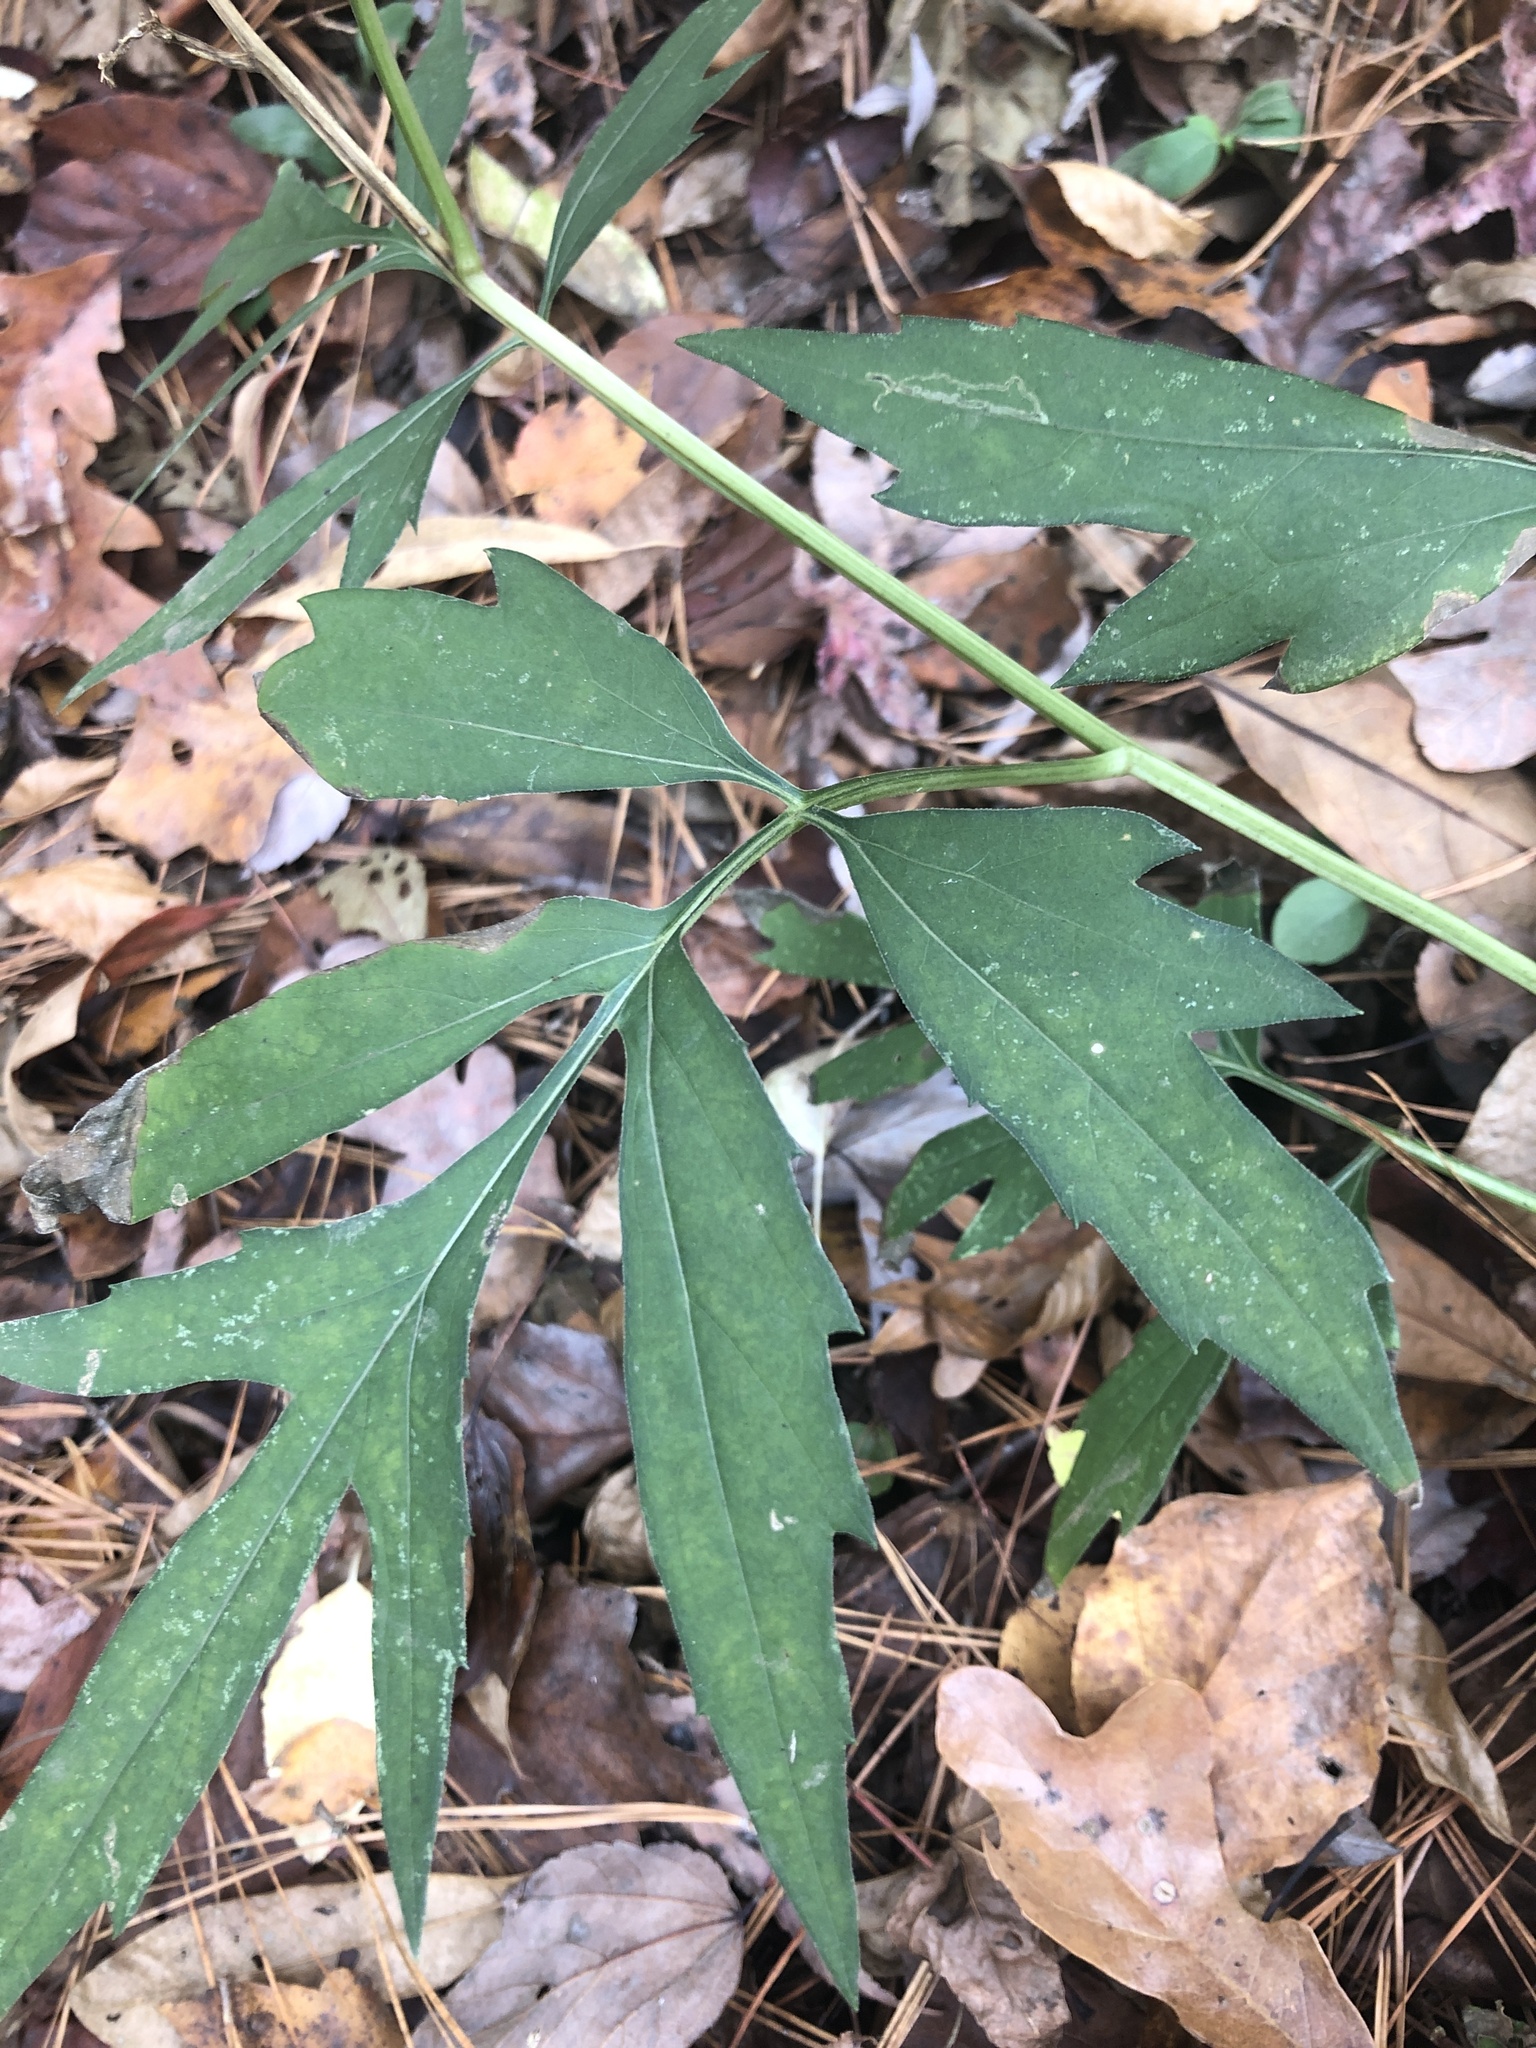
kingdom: Plantae
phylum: Tracheophyta
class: Magnoliopsida
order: Asterales
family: Asteraceae
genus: Rudbeckia
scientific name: Rudbeckia laciniata
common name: Coneflower
